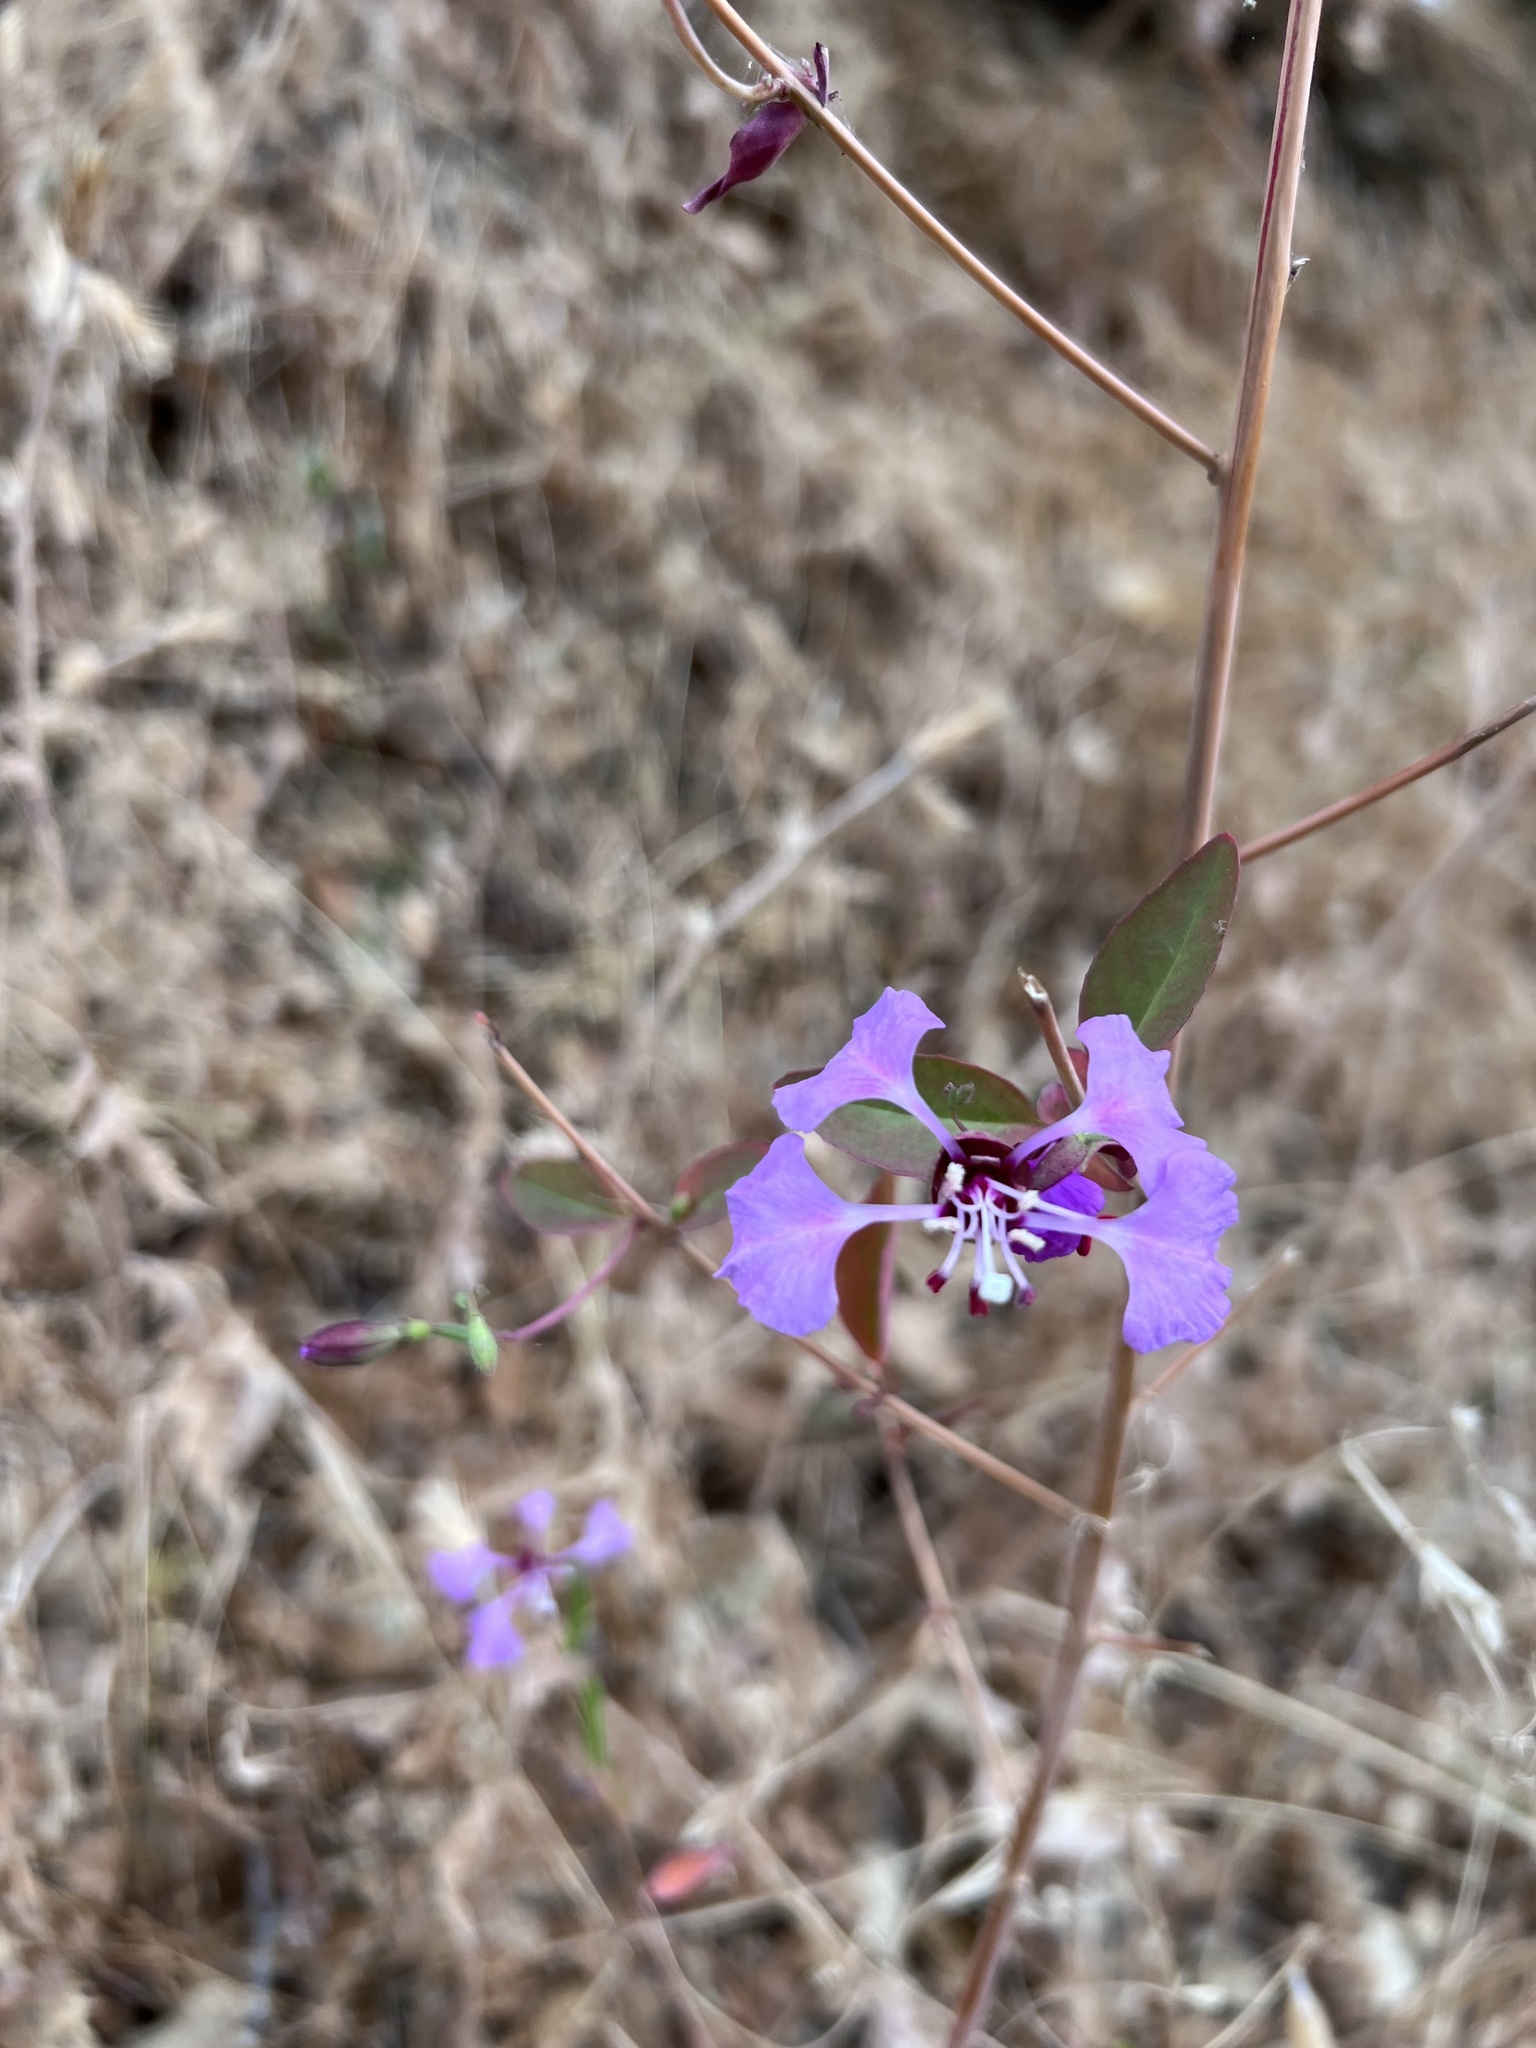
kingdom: Plantae
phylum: Tracheophyta
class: Magnoliopsida
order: Myrtales
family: Onagraceae
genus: Clarkia
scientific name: Clarkia unguiculata
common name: Clarkia
